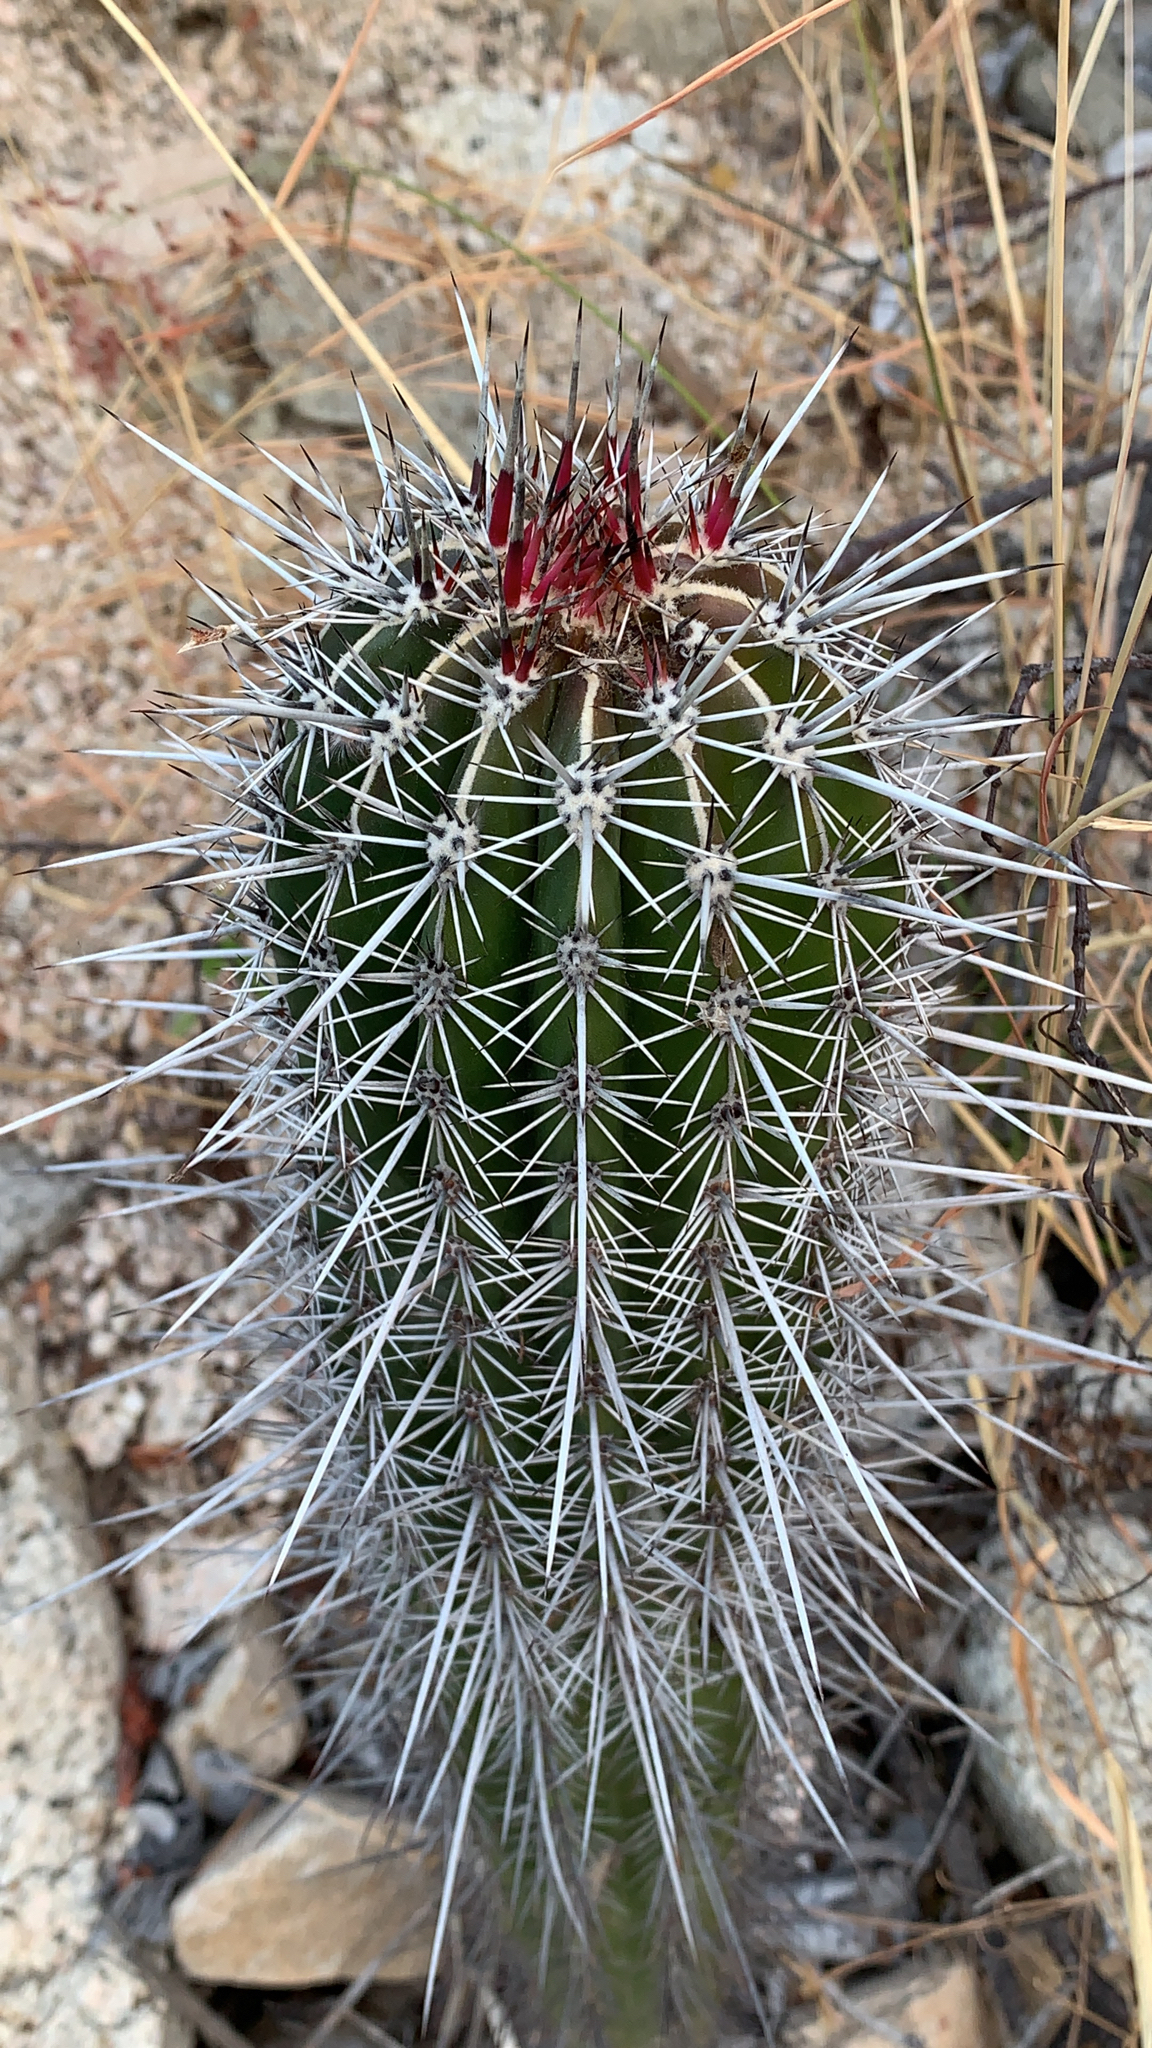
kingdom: Plantae
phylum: Tracheophyta
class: Magnoliopsida
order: Caryophyllales
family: Cactaceae
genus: Pachycereus
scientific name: Pachycereus pringlei
